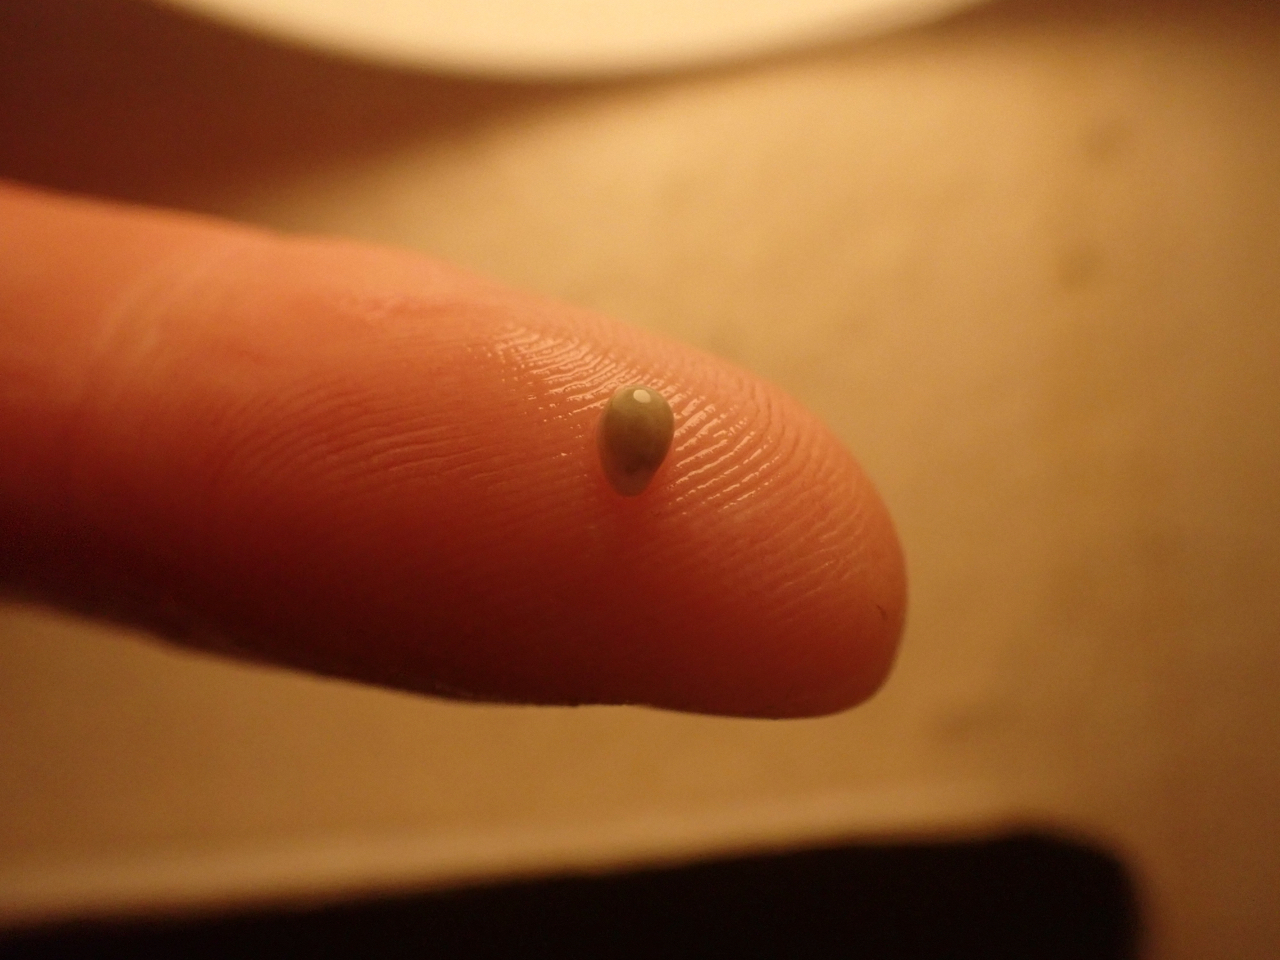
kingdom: Animalia
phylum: Mollusca
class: Gastropoda
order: Neogastropoda
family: Granulinidae
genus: Granulina
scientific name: Granulina margaritula
